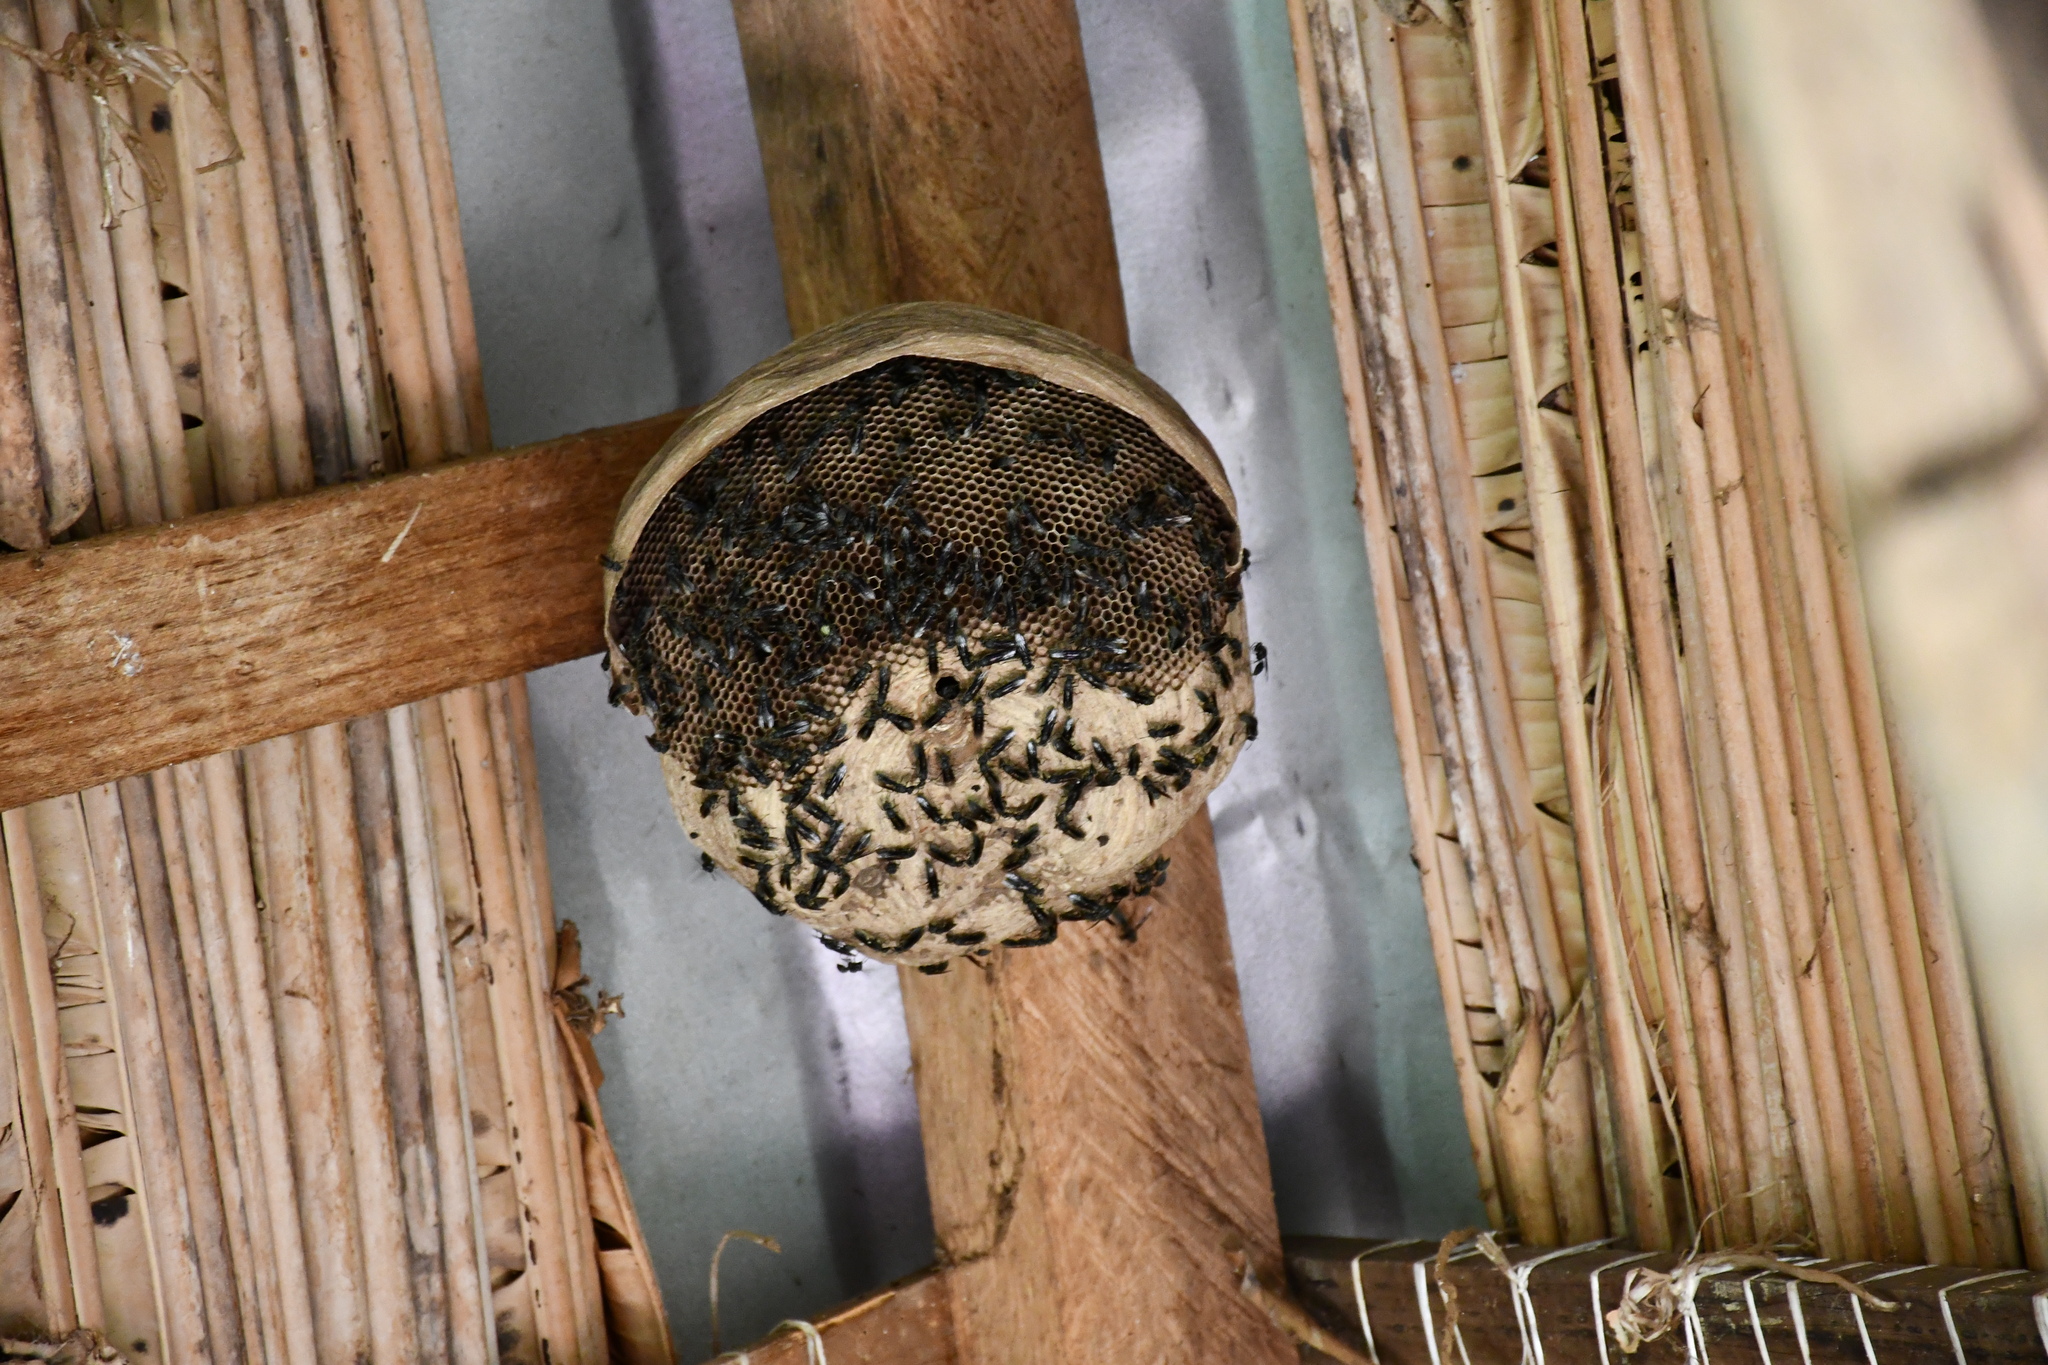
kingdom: Animalia
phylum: Arthropoda
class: Insecta
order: Hymenoptera
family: Eumenidae
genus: Polybia
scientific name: Polybia ignobilis
